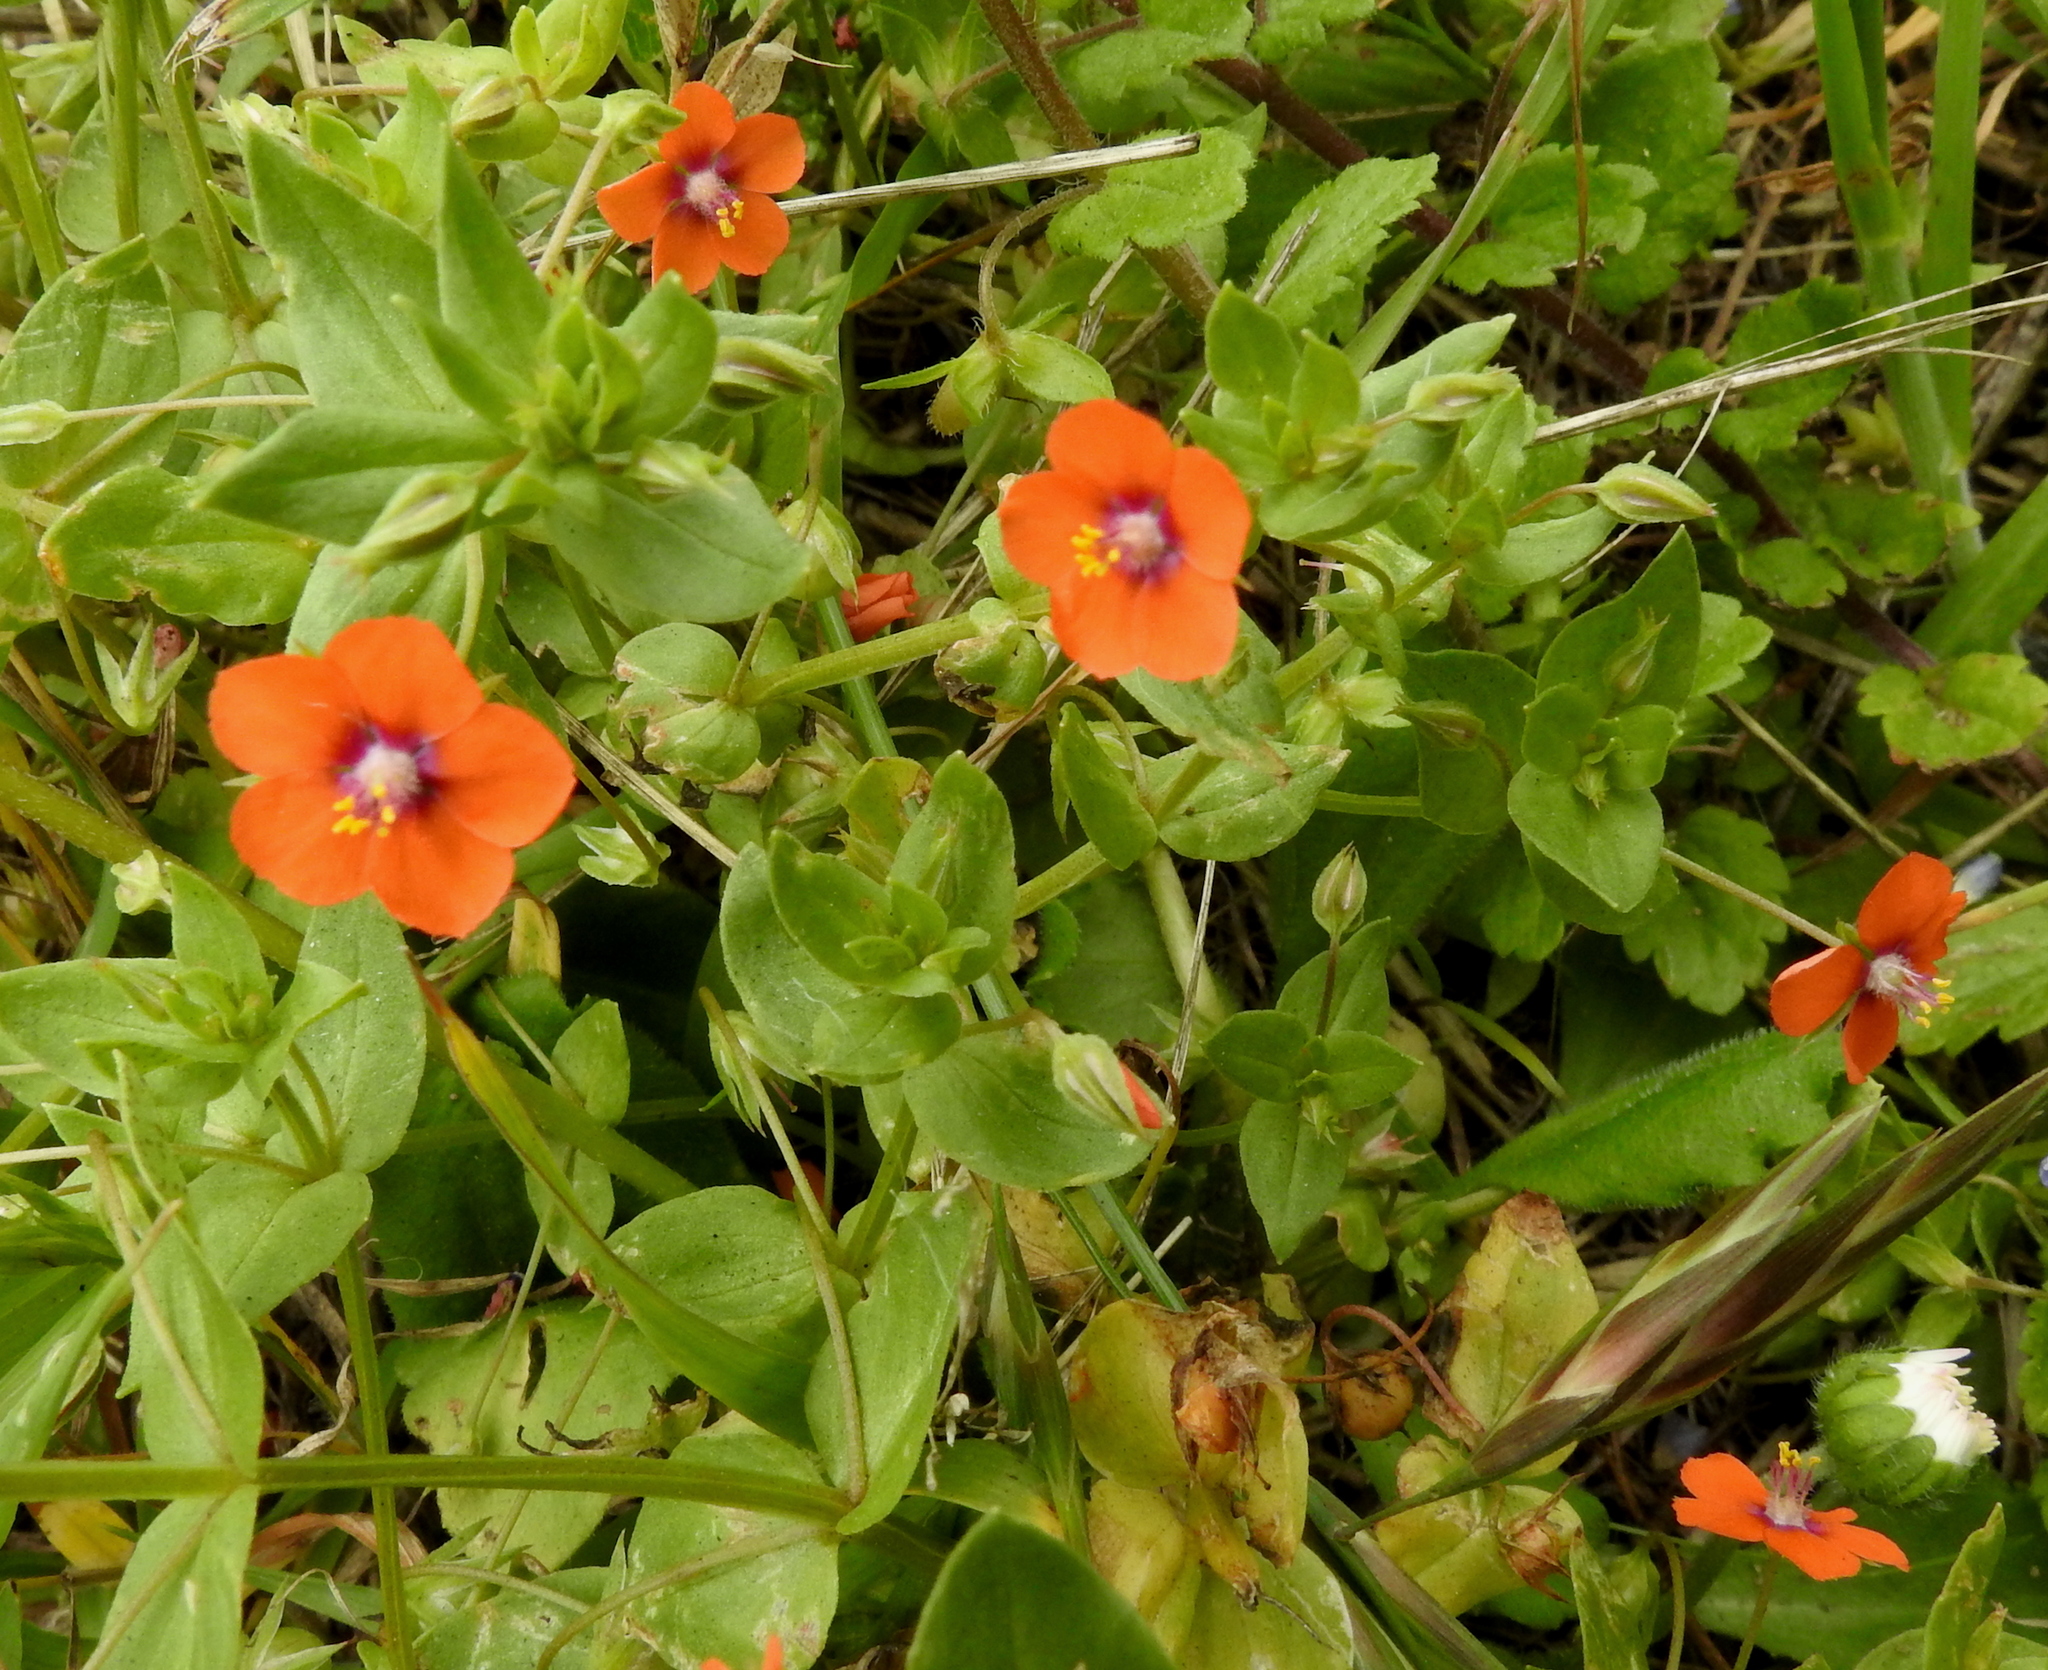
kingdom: Plantae
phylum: Tracheophyta
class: Magnoliopsida
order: Ericales
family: Primulaceae
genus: Lysimachia
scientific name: Lysimachia arvensis
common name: Scarlet pimpernel
